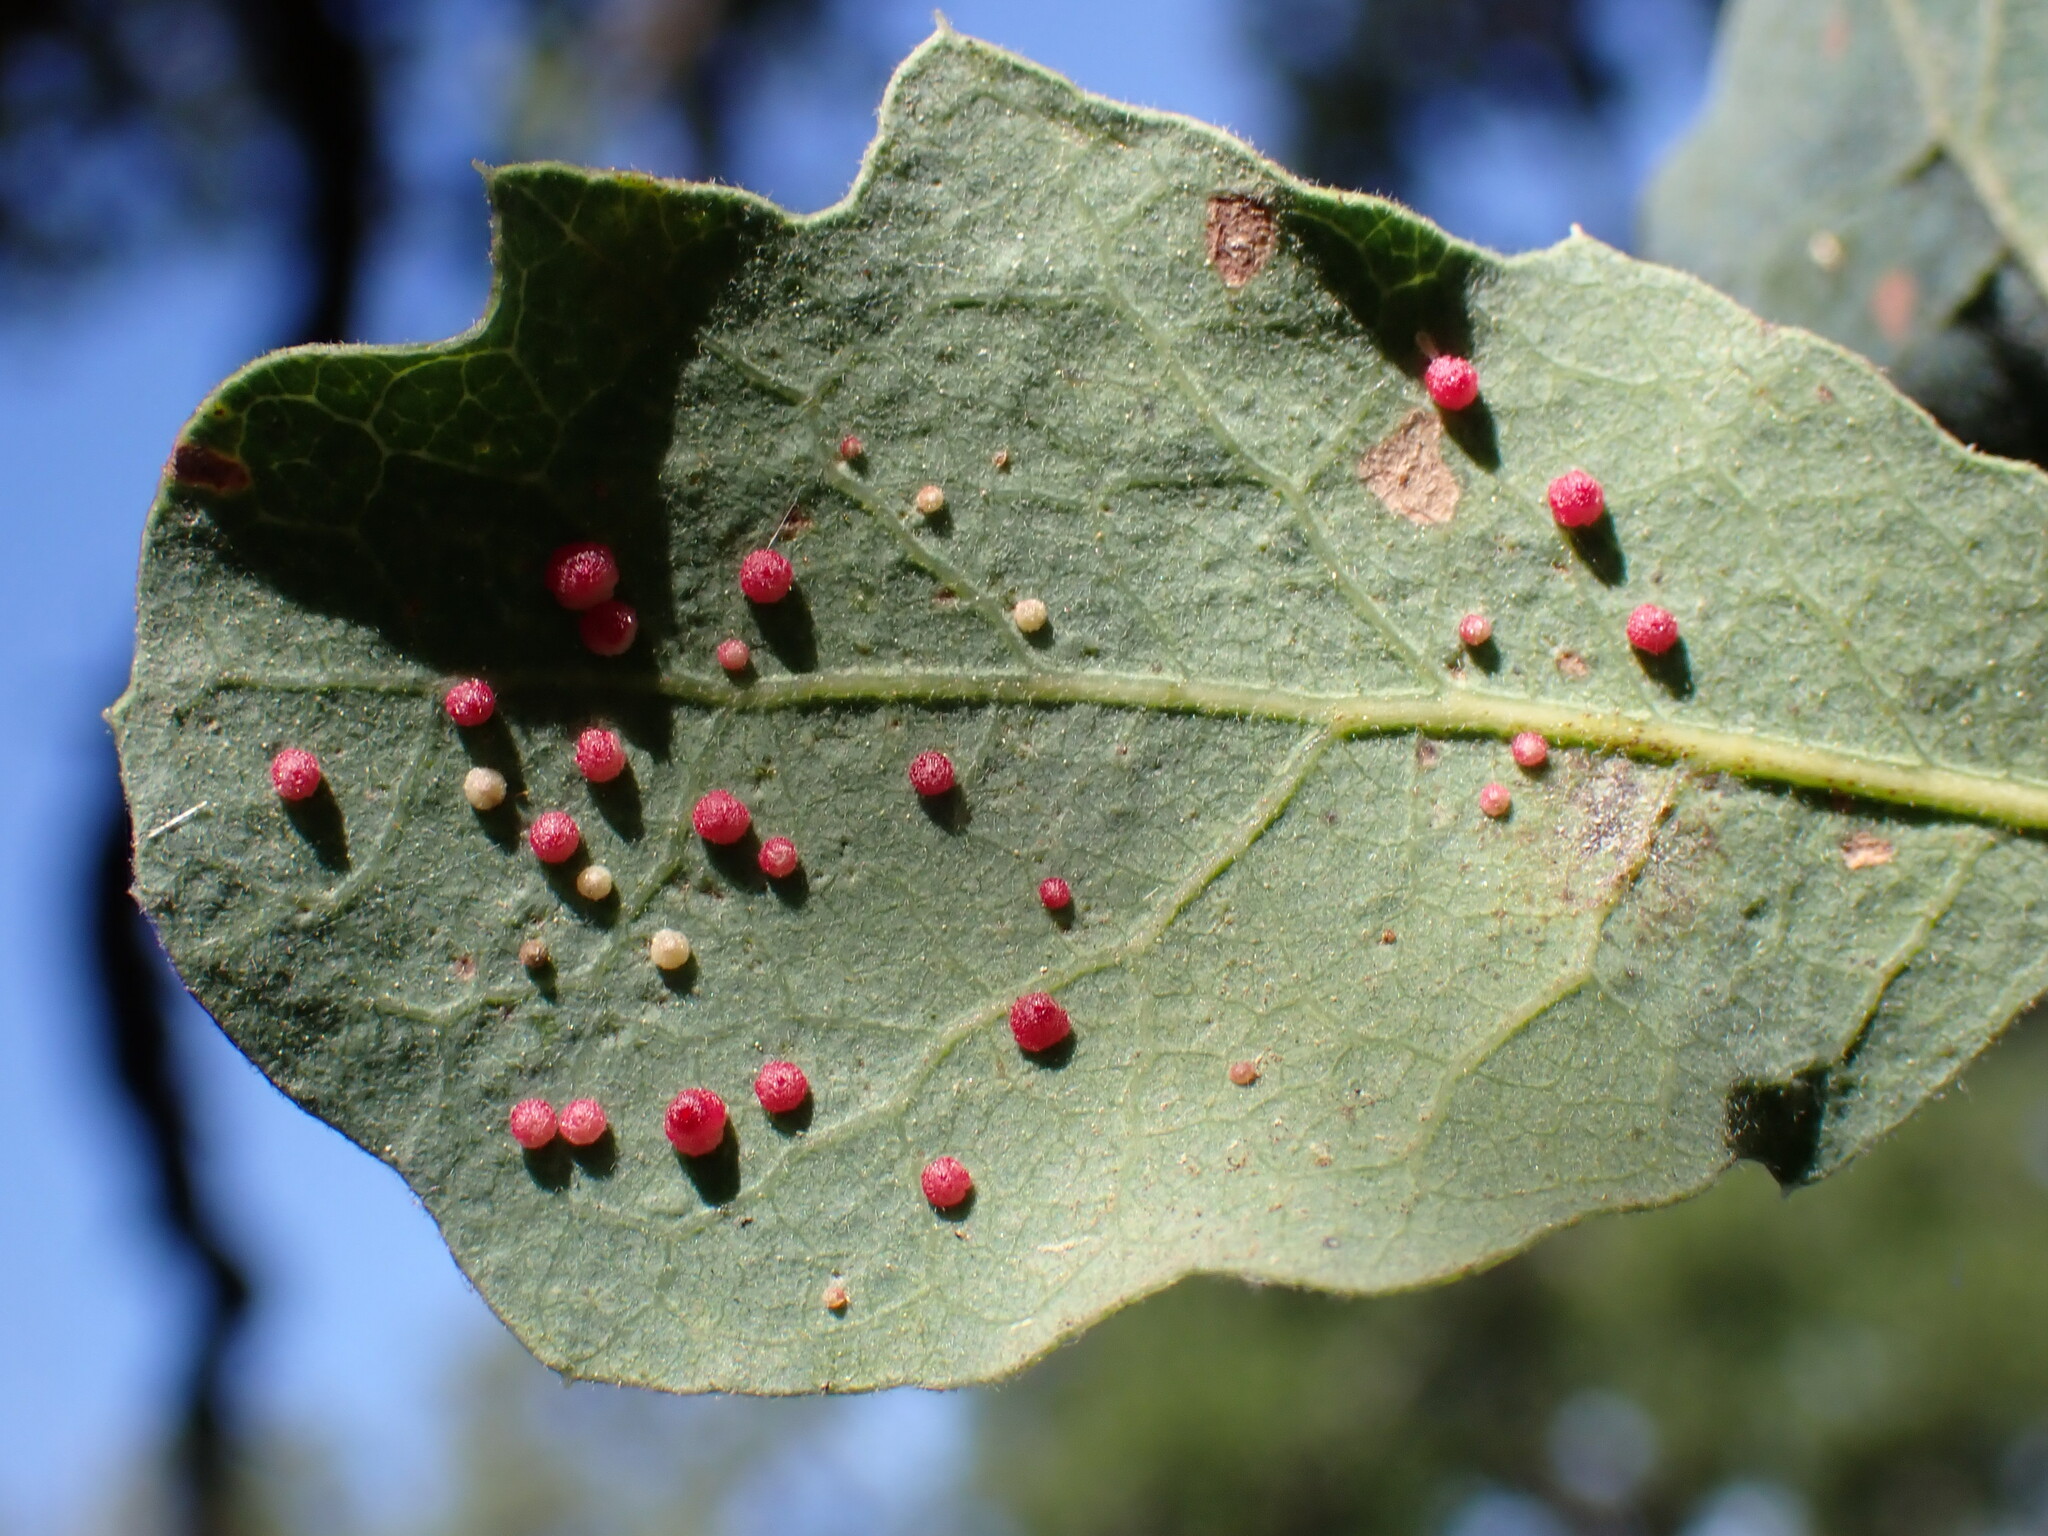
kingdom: Animalia
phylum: Arthropoda
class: Insecta
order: Hymenoptera
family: Cynipidae
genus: Andricus
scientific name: Andricus
